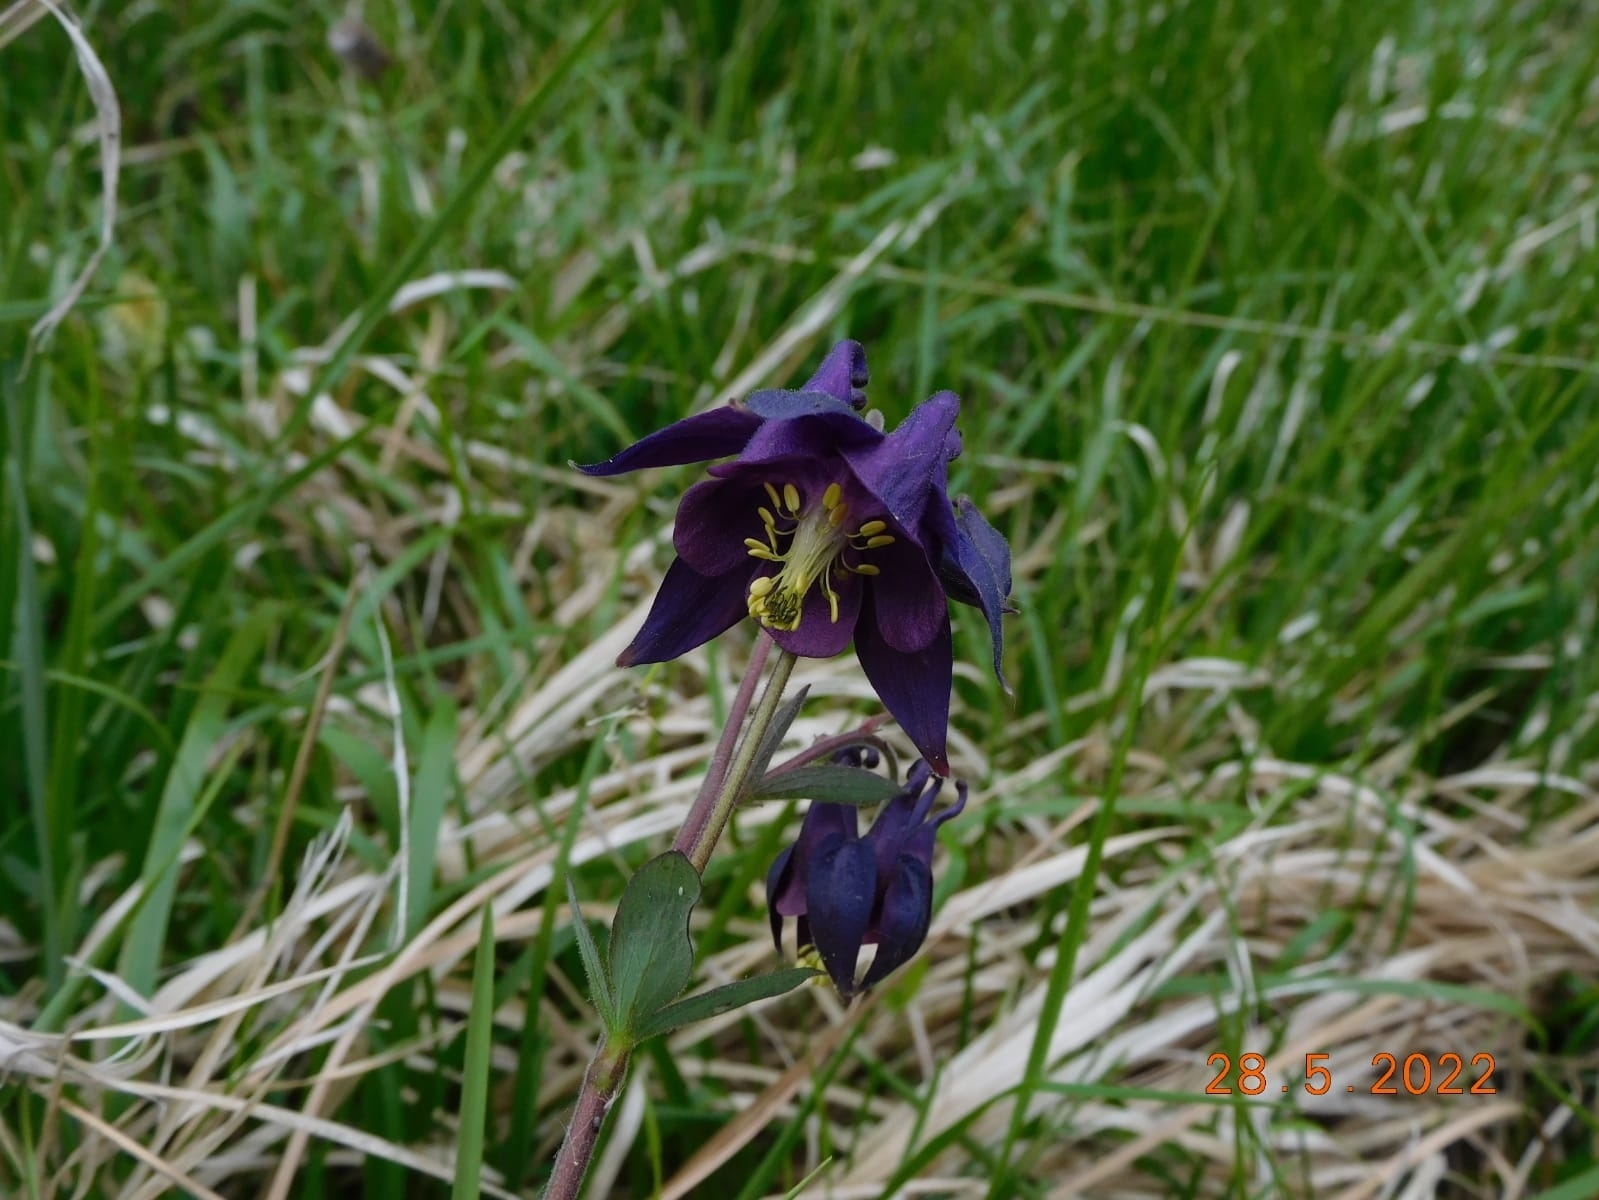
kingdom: Plantae
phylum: Tracheophyta
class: Magnoliopsida
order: Ranunculales
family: Ranunculaceae
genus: Aquilegia
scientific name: Aquilegia atrata
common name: Dark columbine
